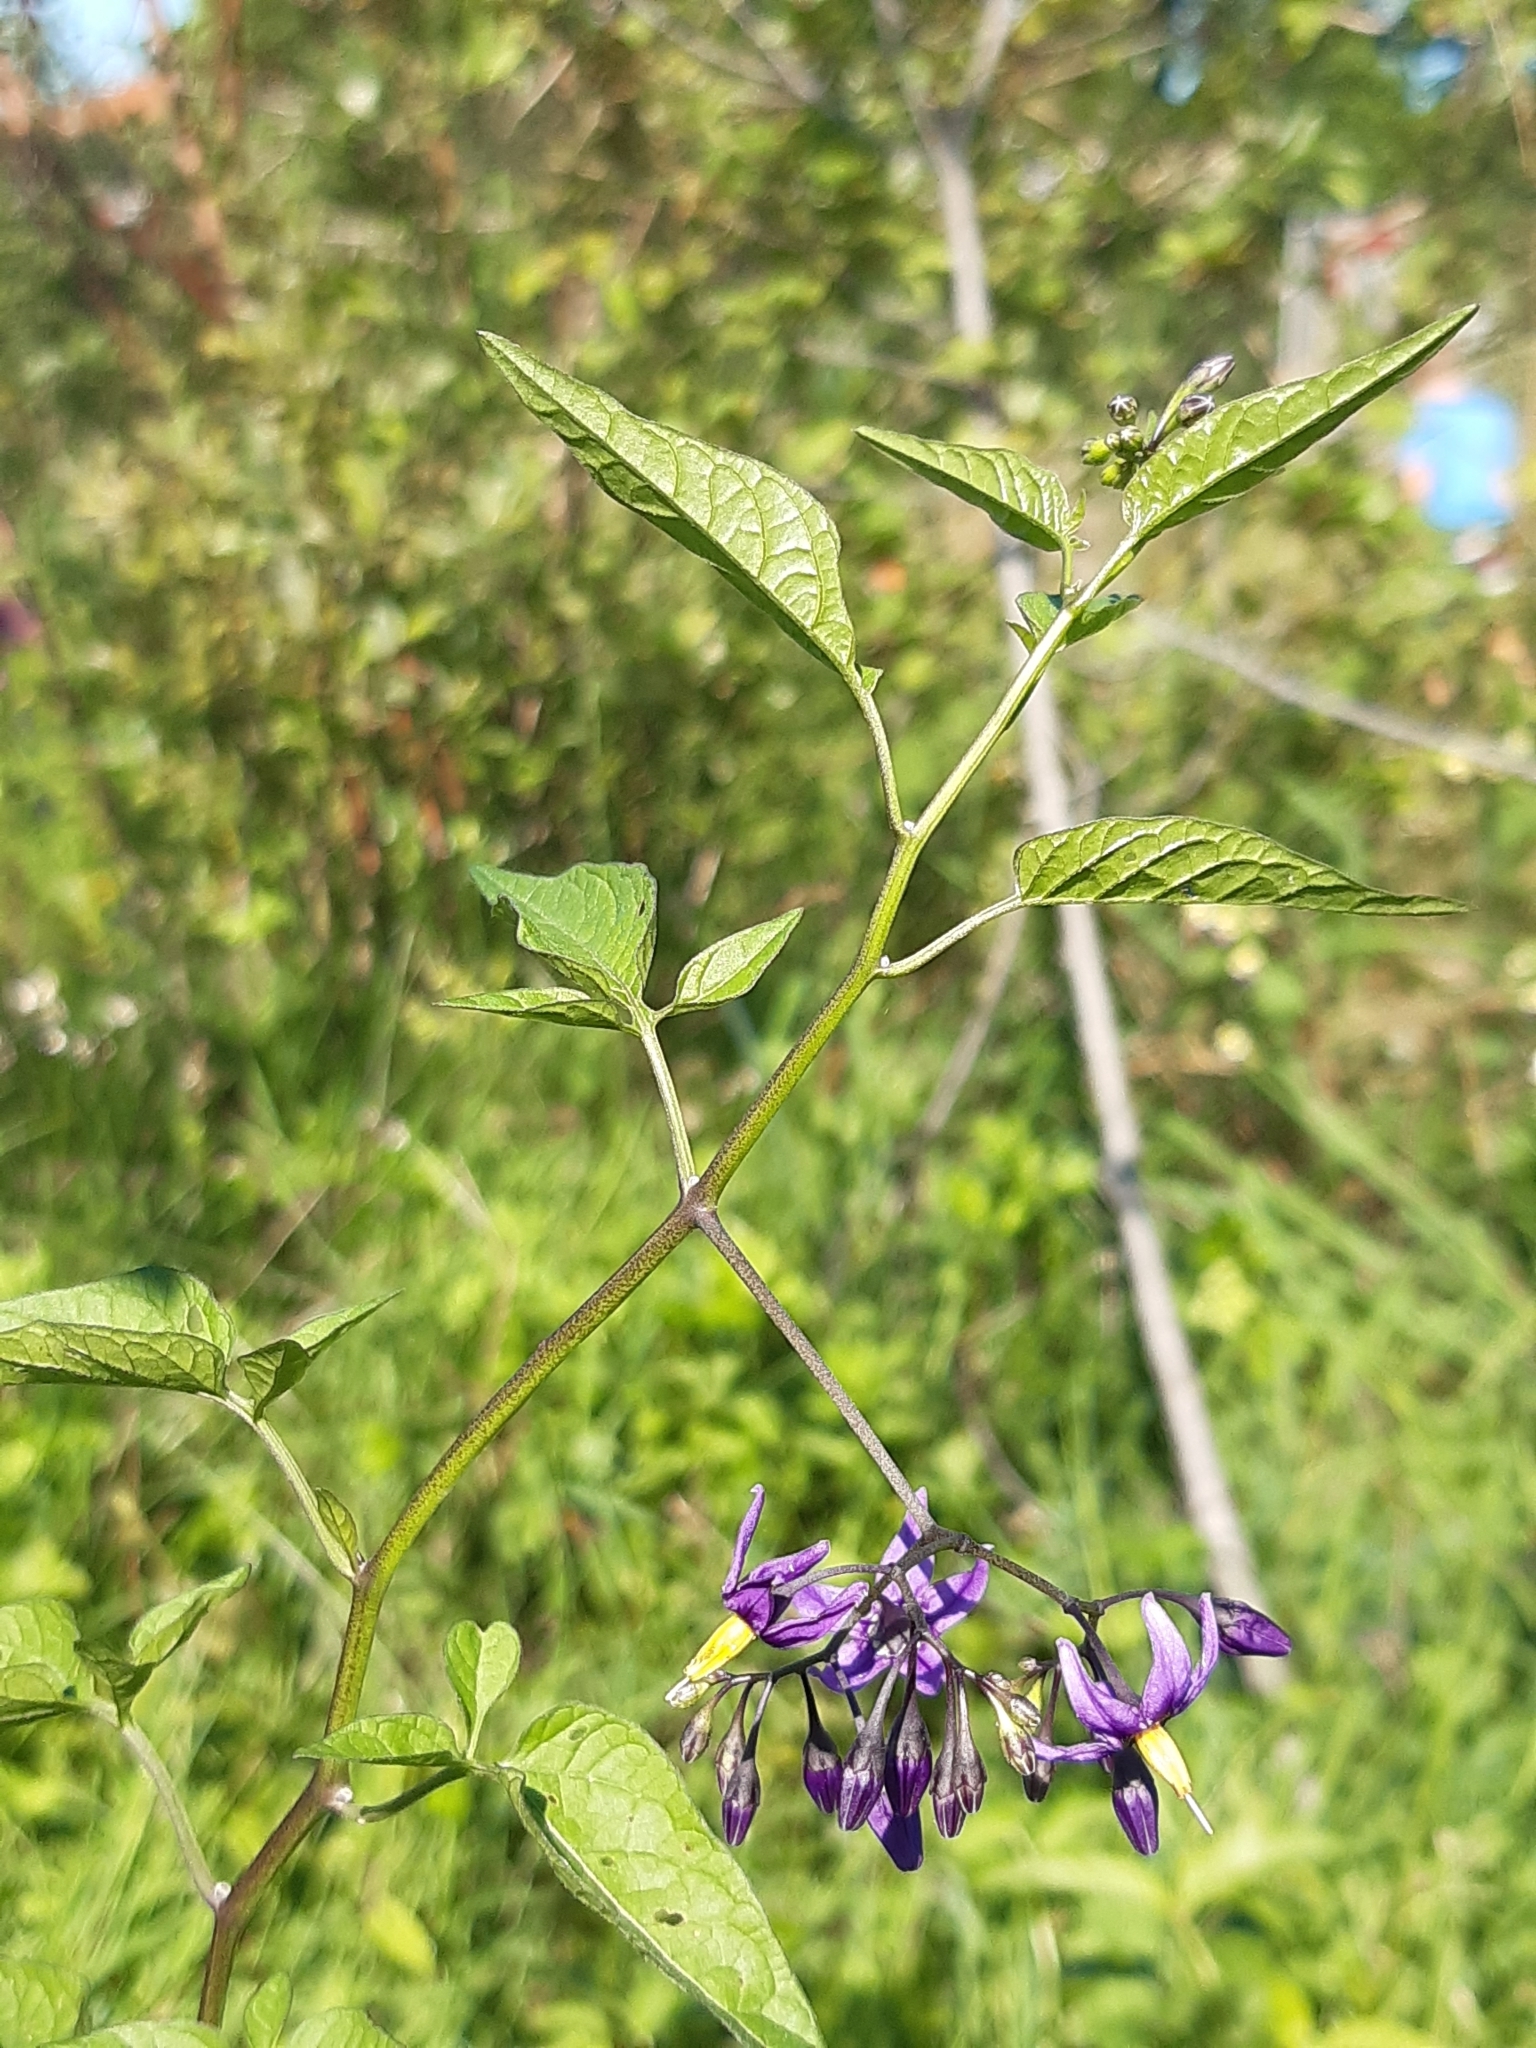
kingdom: Plantae
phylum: Tracheophyta
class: Magnoliopsida
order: Solanales
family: Solanaceae
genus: Solanum
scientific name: Solanum dulcamara
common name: Climbing nightshade
